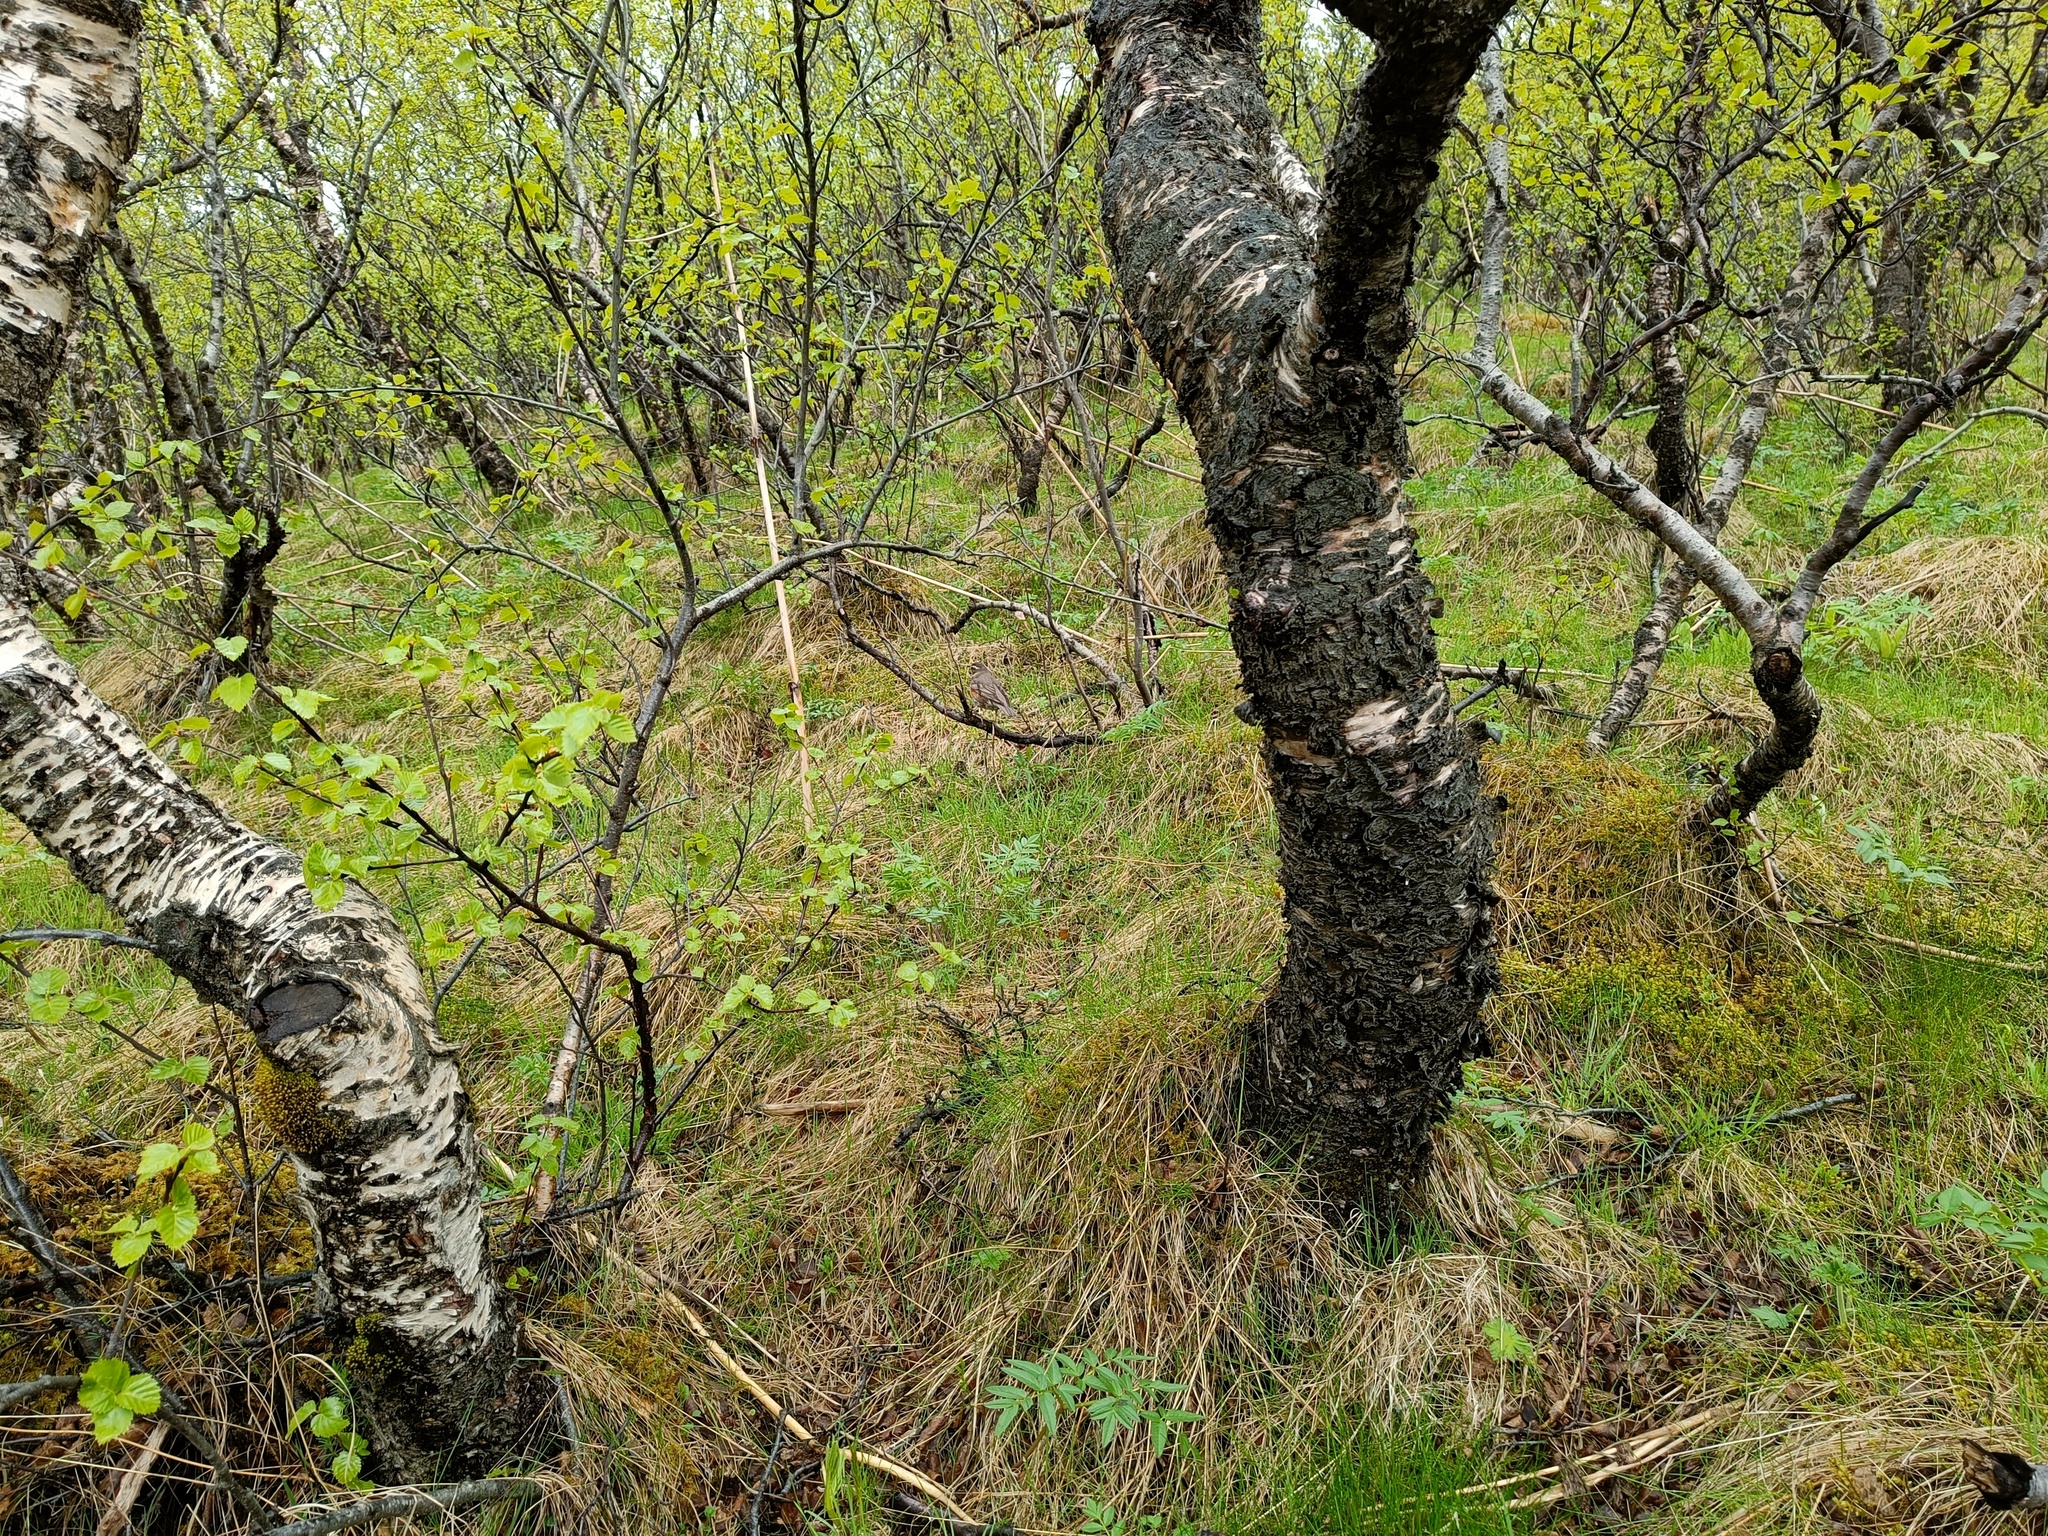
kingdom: Animalia
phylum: Chordata
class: Aves
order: Passeriformes
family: Turdidae
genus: Turdus
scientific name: Turdus iliacus
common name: Redwing
